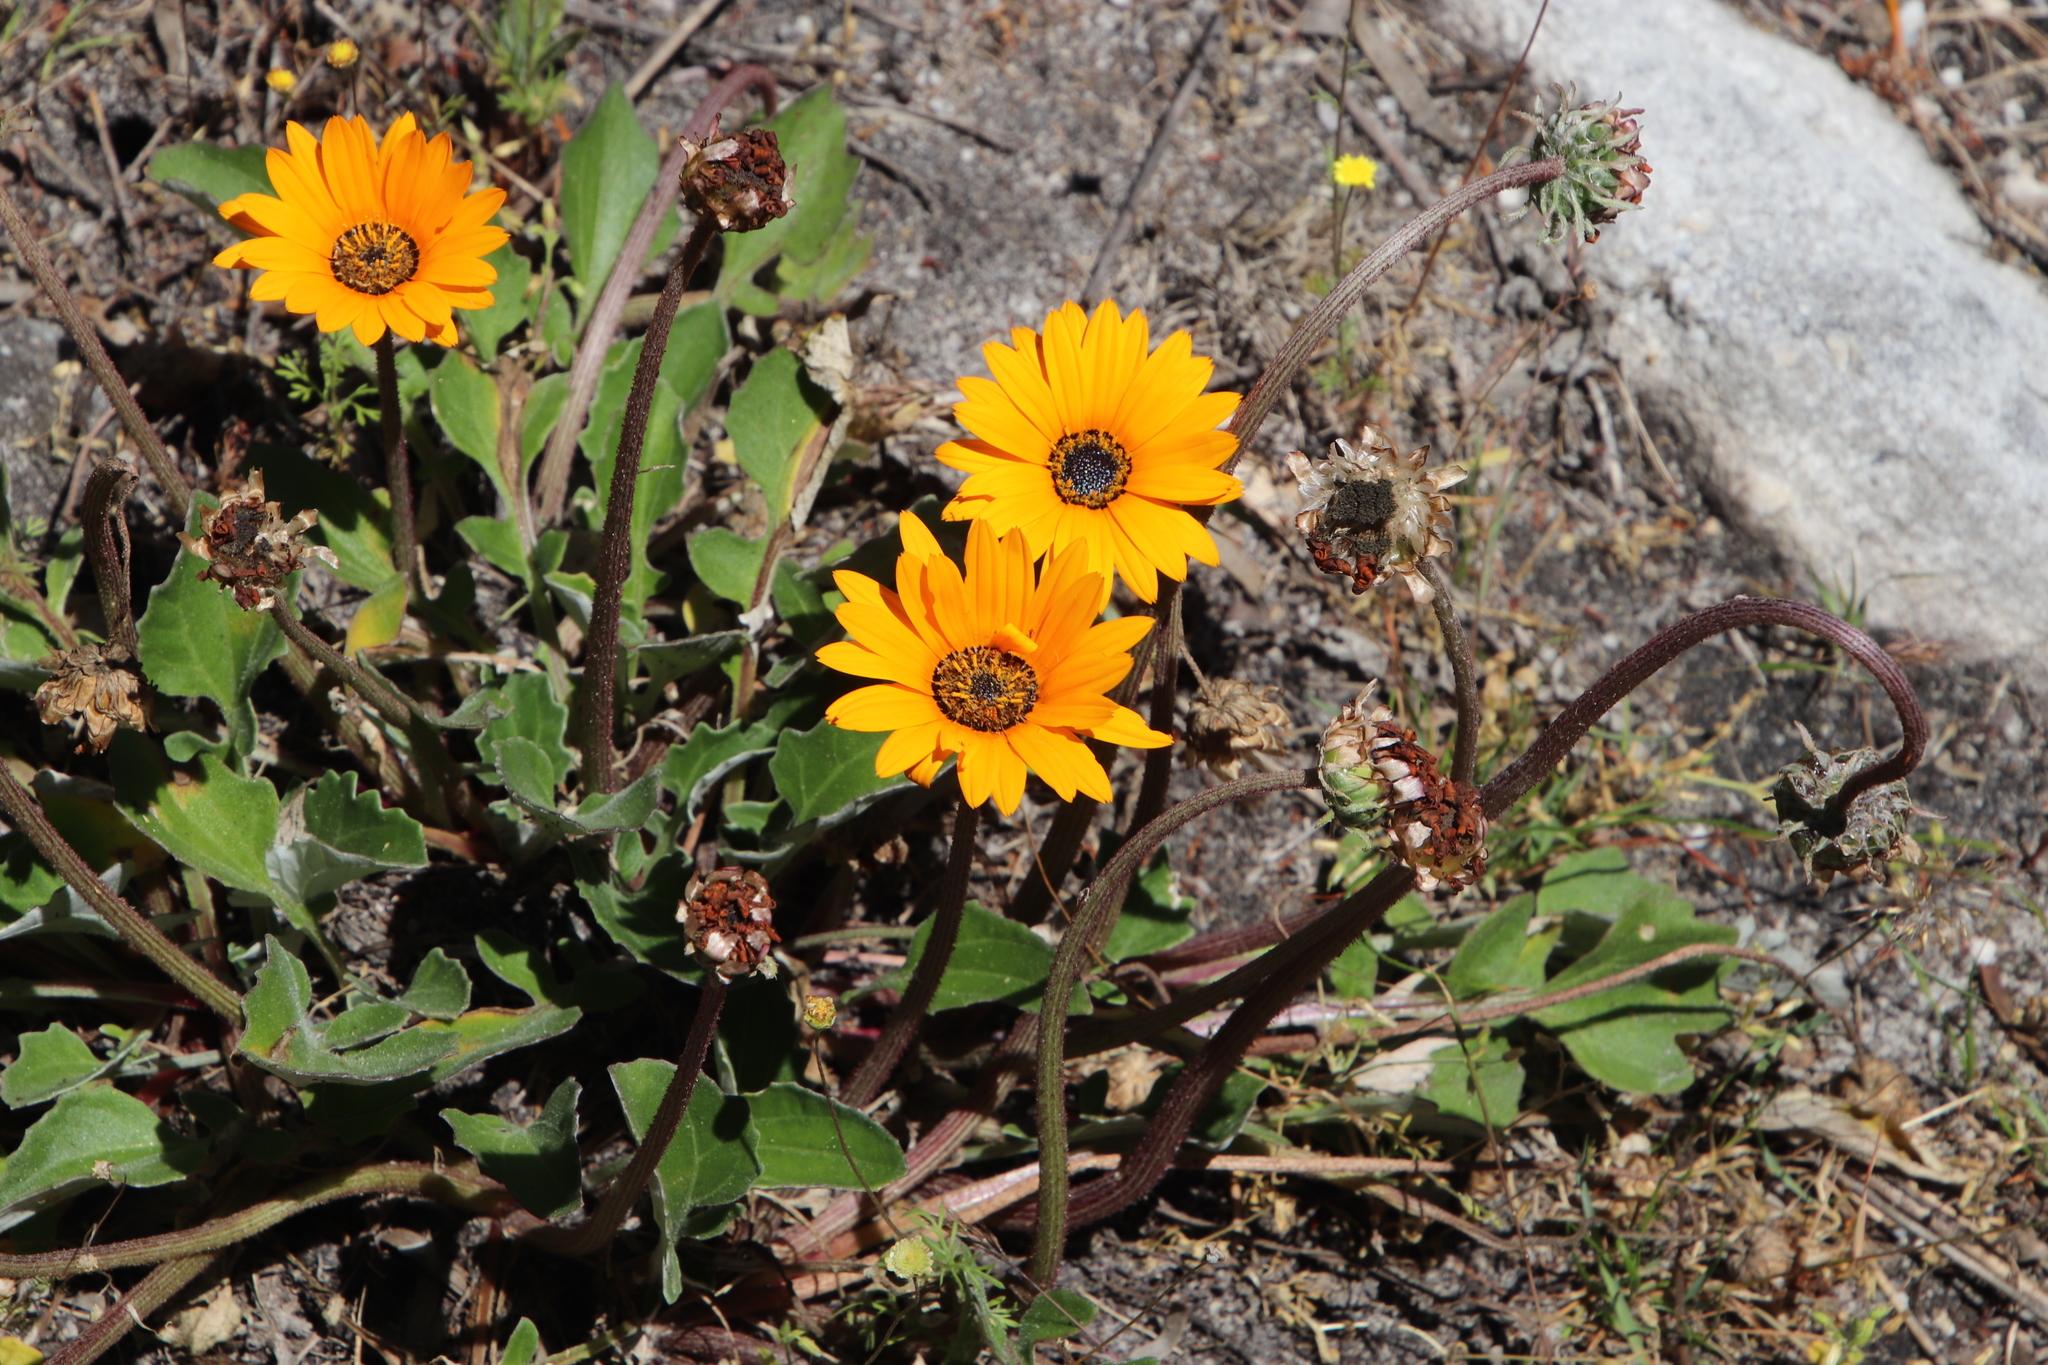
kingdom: Plantae
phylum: Tracheophyta
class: Magnoliopsida
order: Asterales
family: Asteraceae
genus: Arctotis
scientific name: Arctotis acaulis
